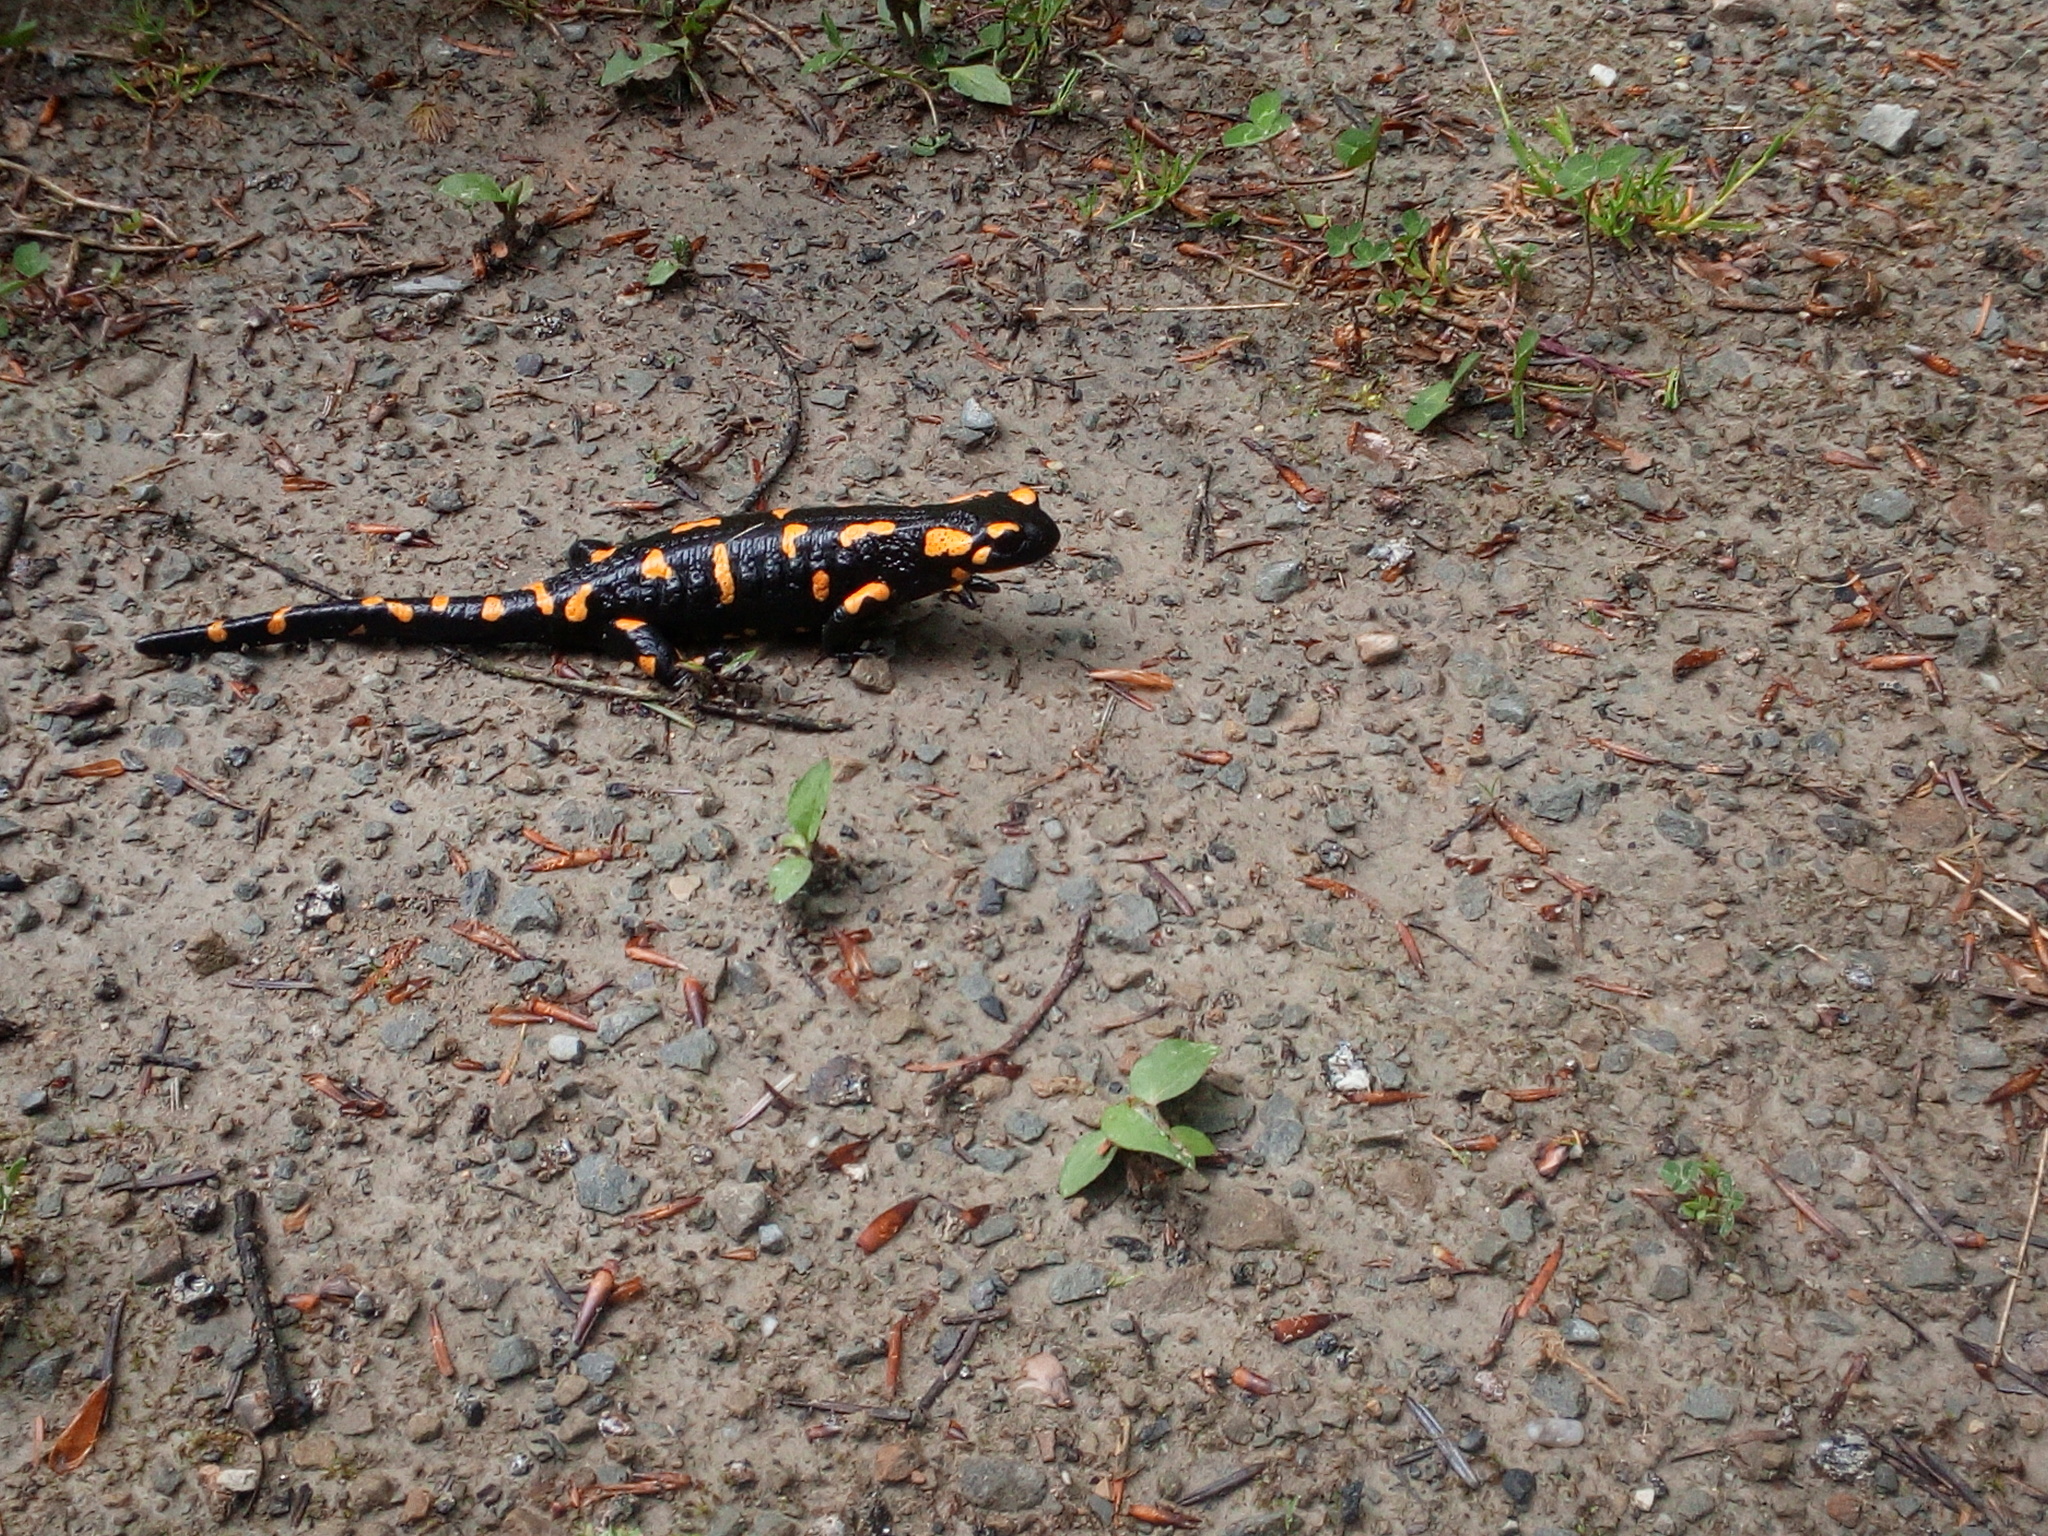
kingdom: Animalia
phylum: Chordata
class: Amphibia
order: Caudata
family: Salamandridae
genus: Salamandra
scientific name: Salamandra salamandra
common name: Fire salamander
